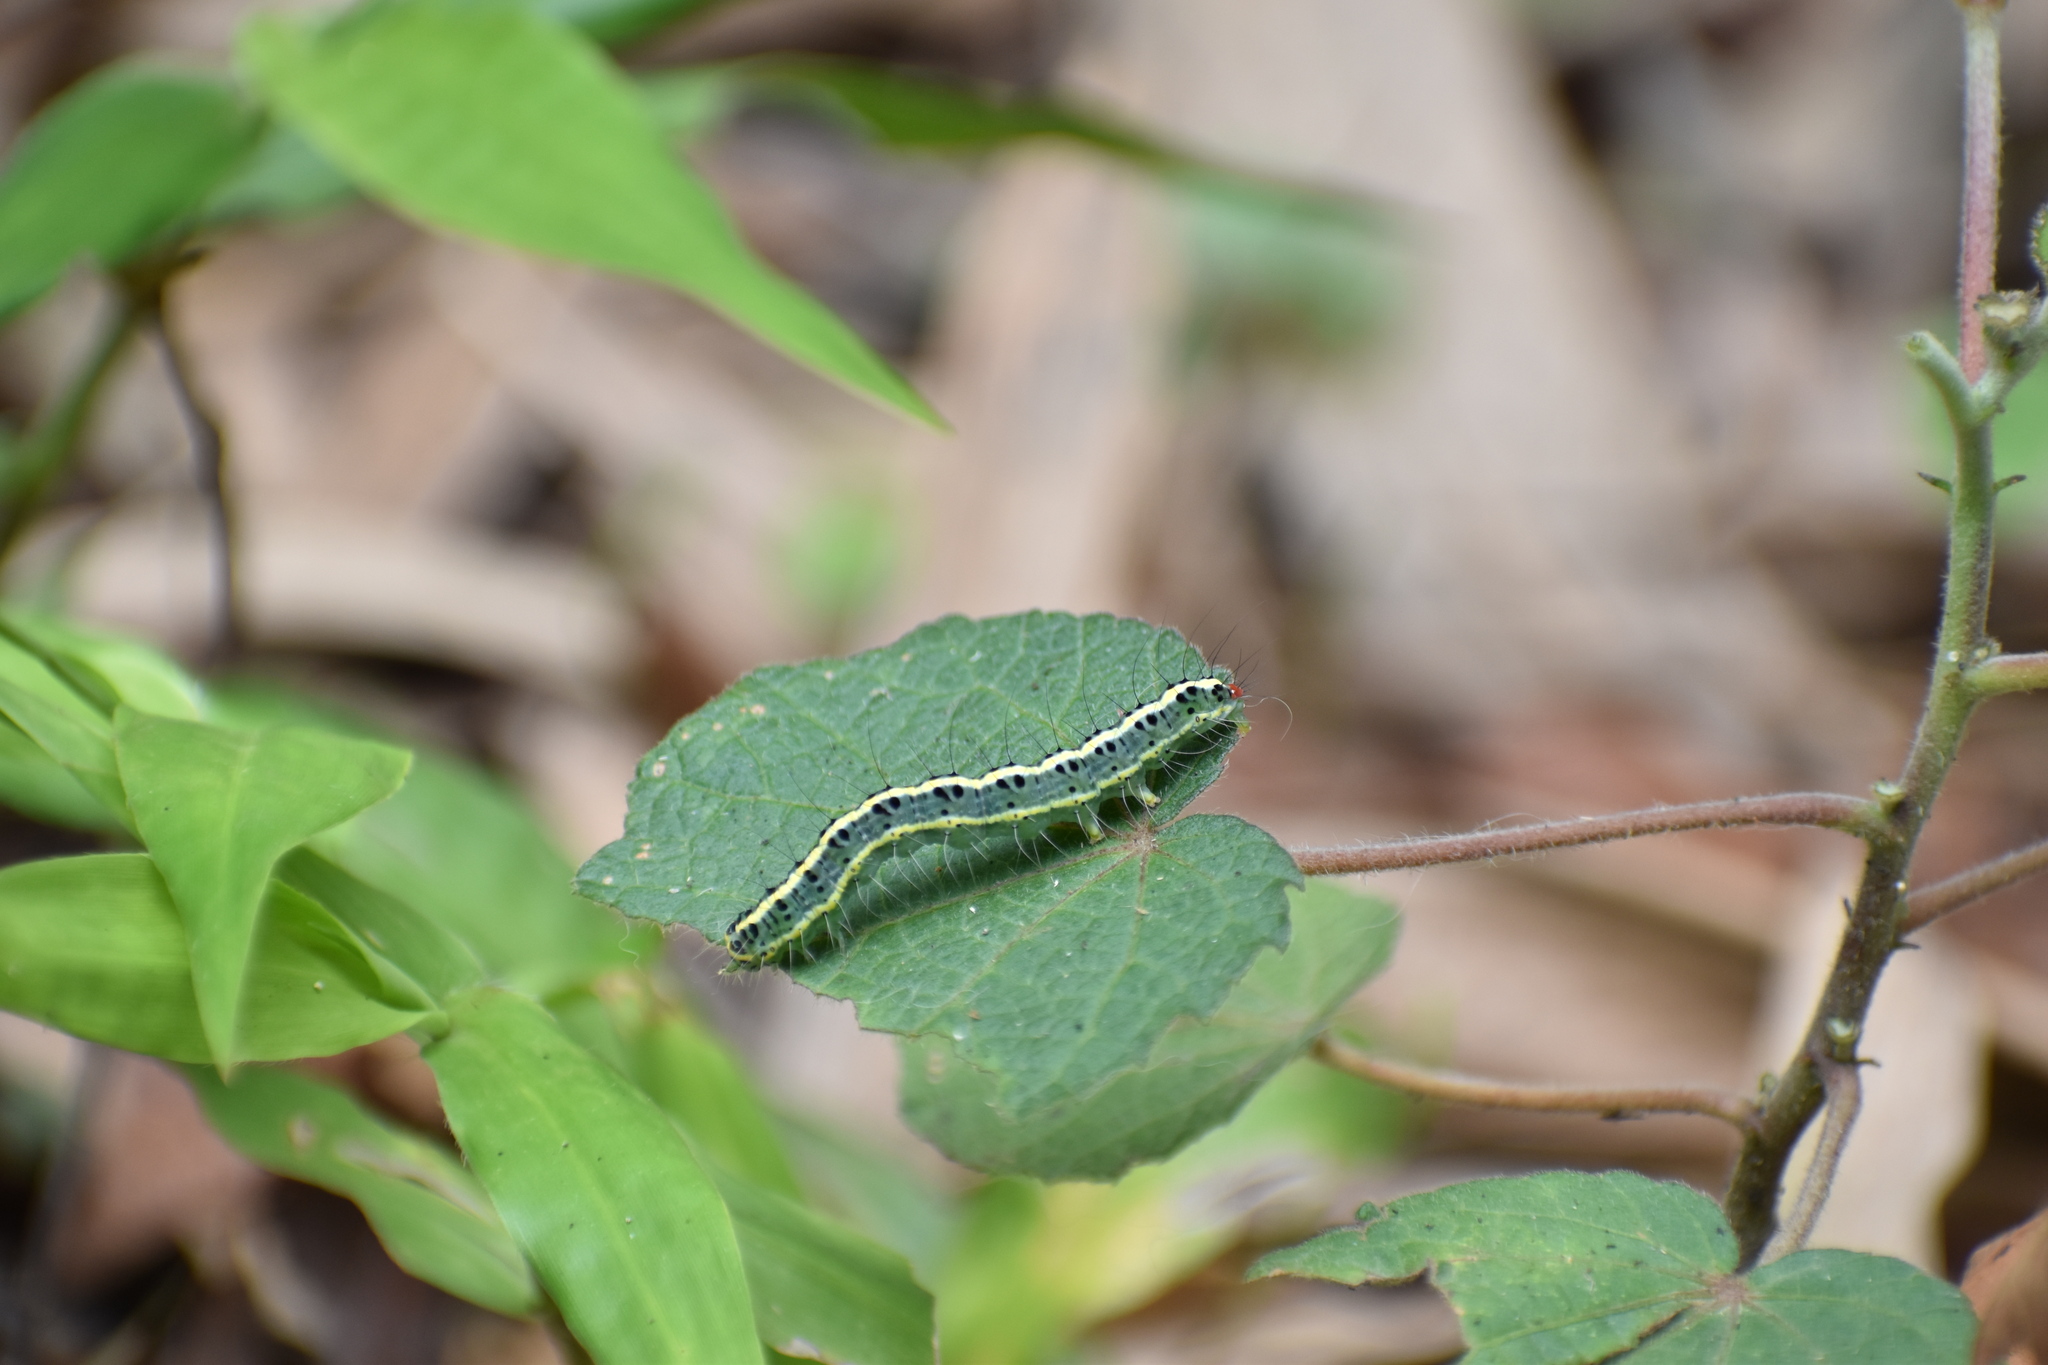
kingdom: Animalia
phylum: Arthropoda
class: Insecta
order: Lepidoptera
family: Nolidae
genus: Xanthodes
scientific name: Xanthodes transversa
